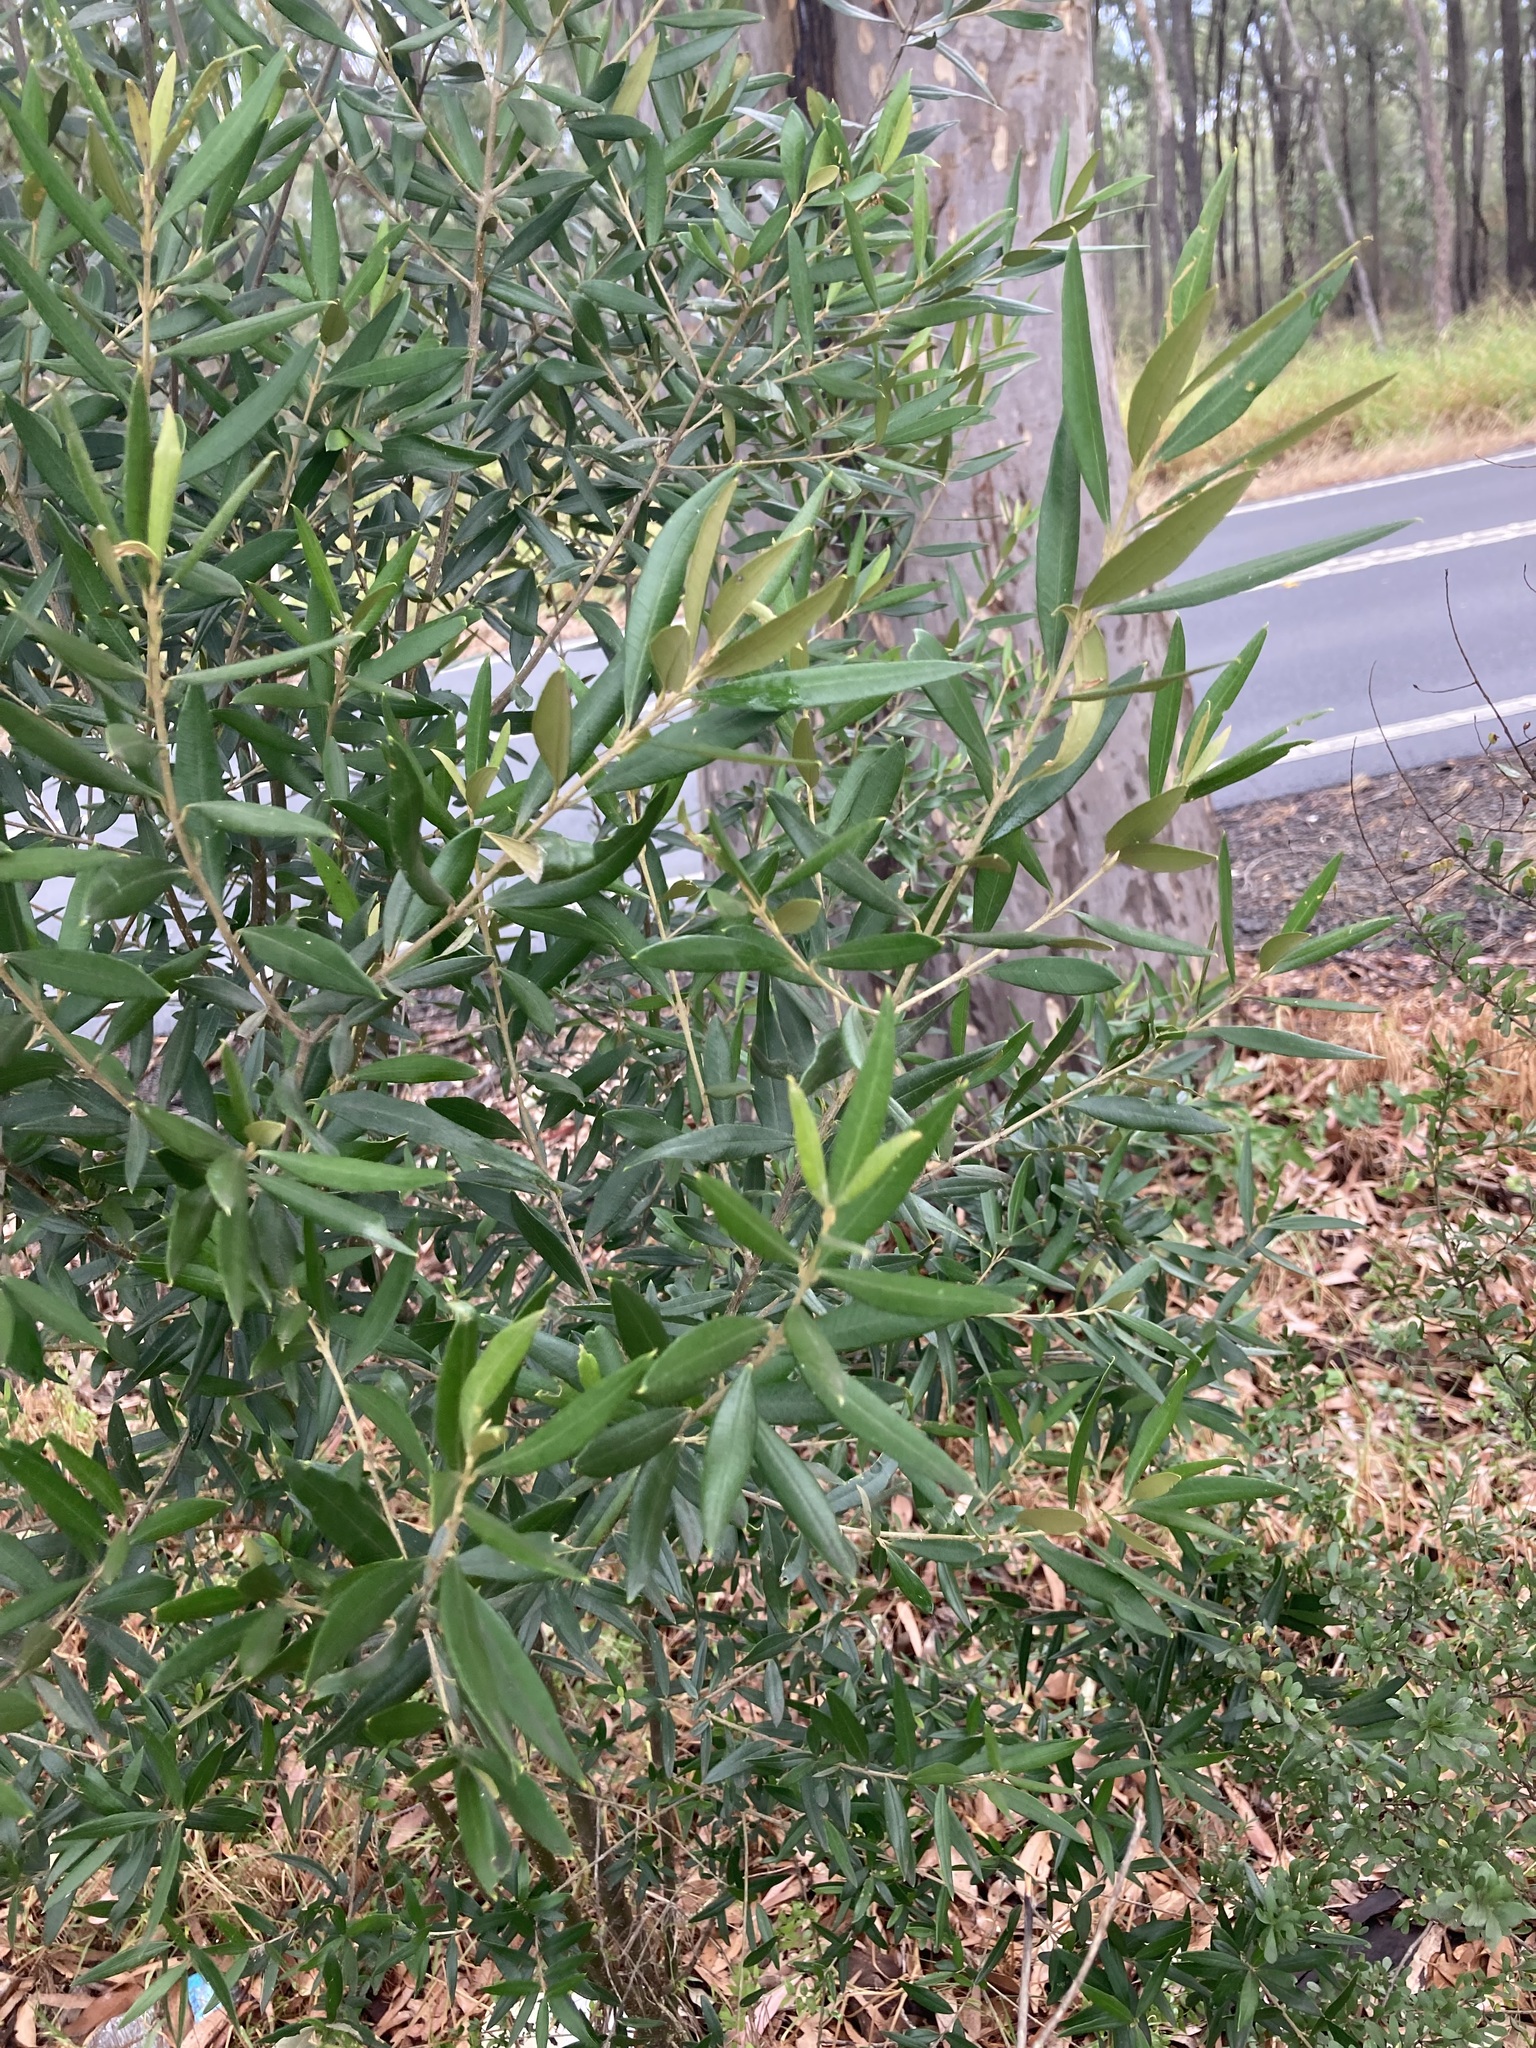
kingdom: Plantae
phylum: Tracheophyta
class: Magnoliopsida
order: Lamiales
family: Oleaceae
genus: Olea
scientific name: Olea europaea
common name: Olive
